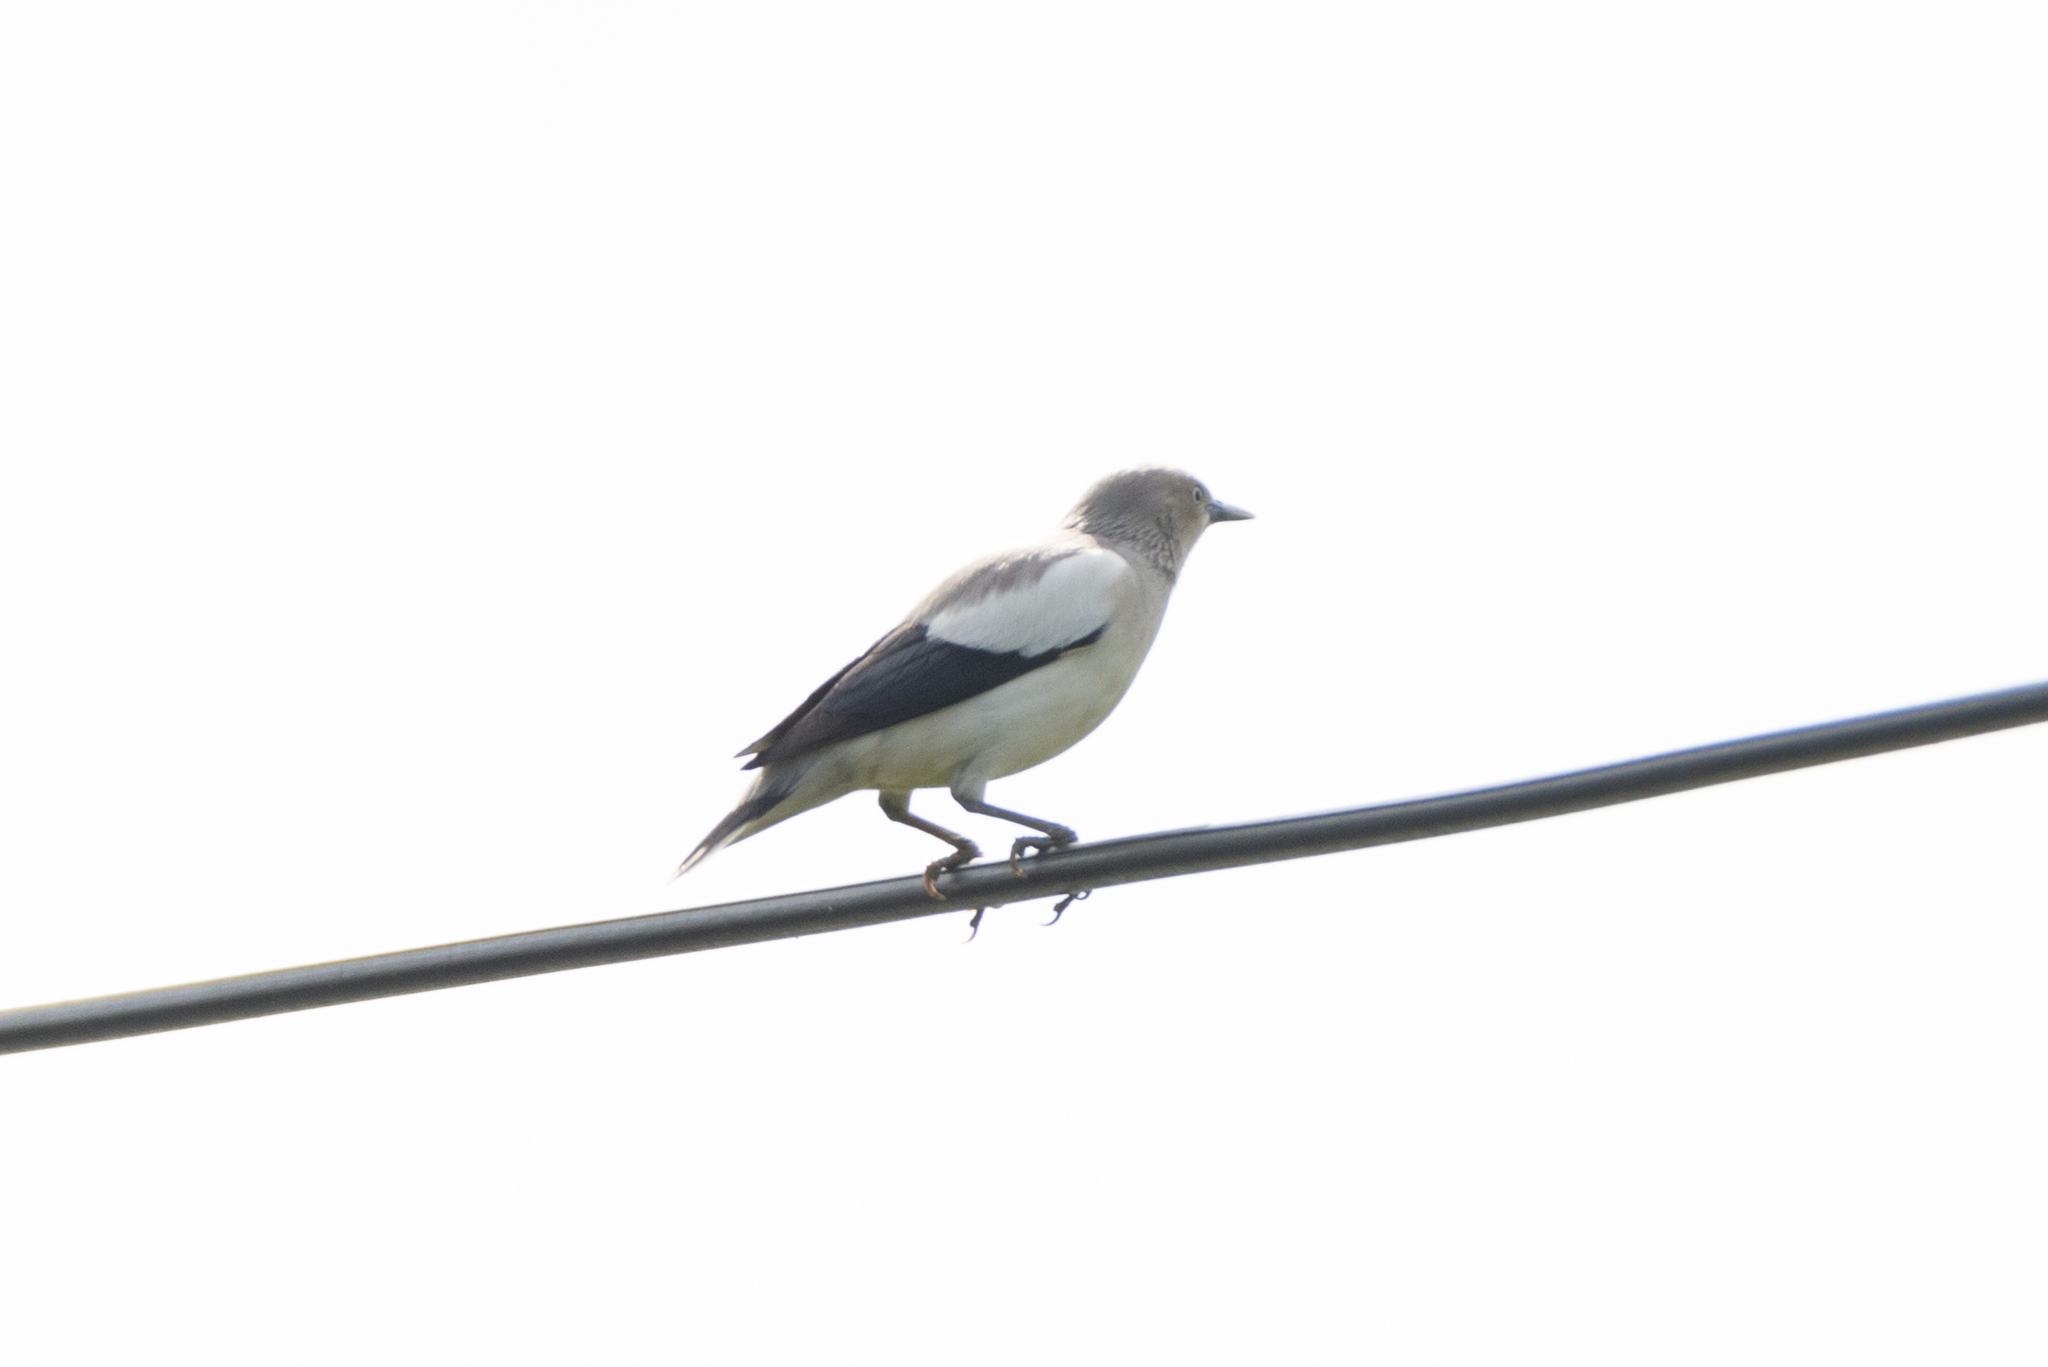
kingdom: Animalia
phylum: Chordata
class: Aves
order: Passeriformes
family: Sturnidae
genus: Sturnia
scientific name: Sturnia sinensis
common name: White-shouldered starling
